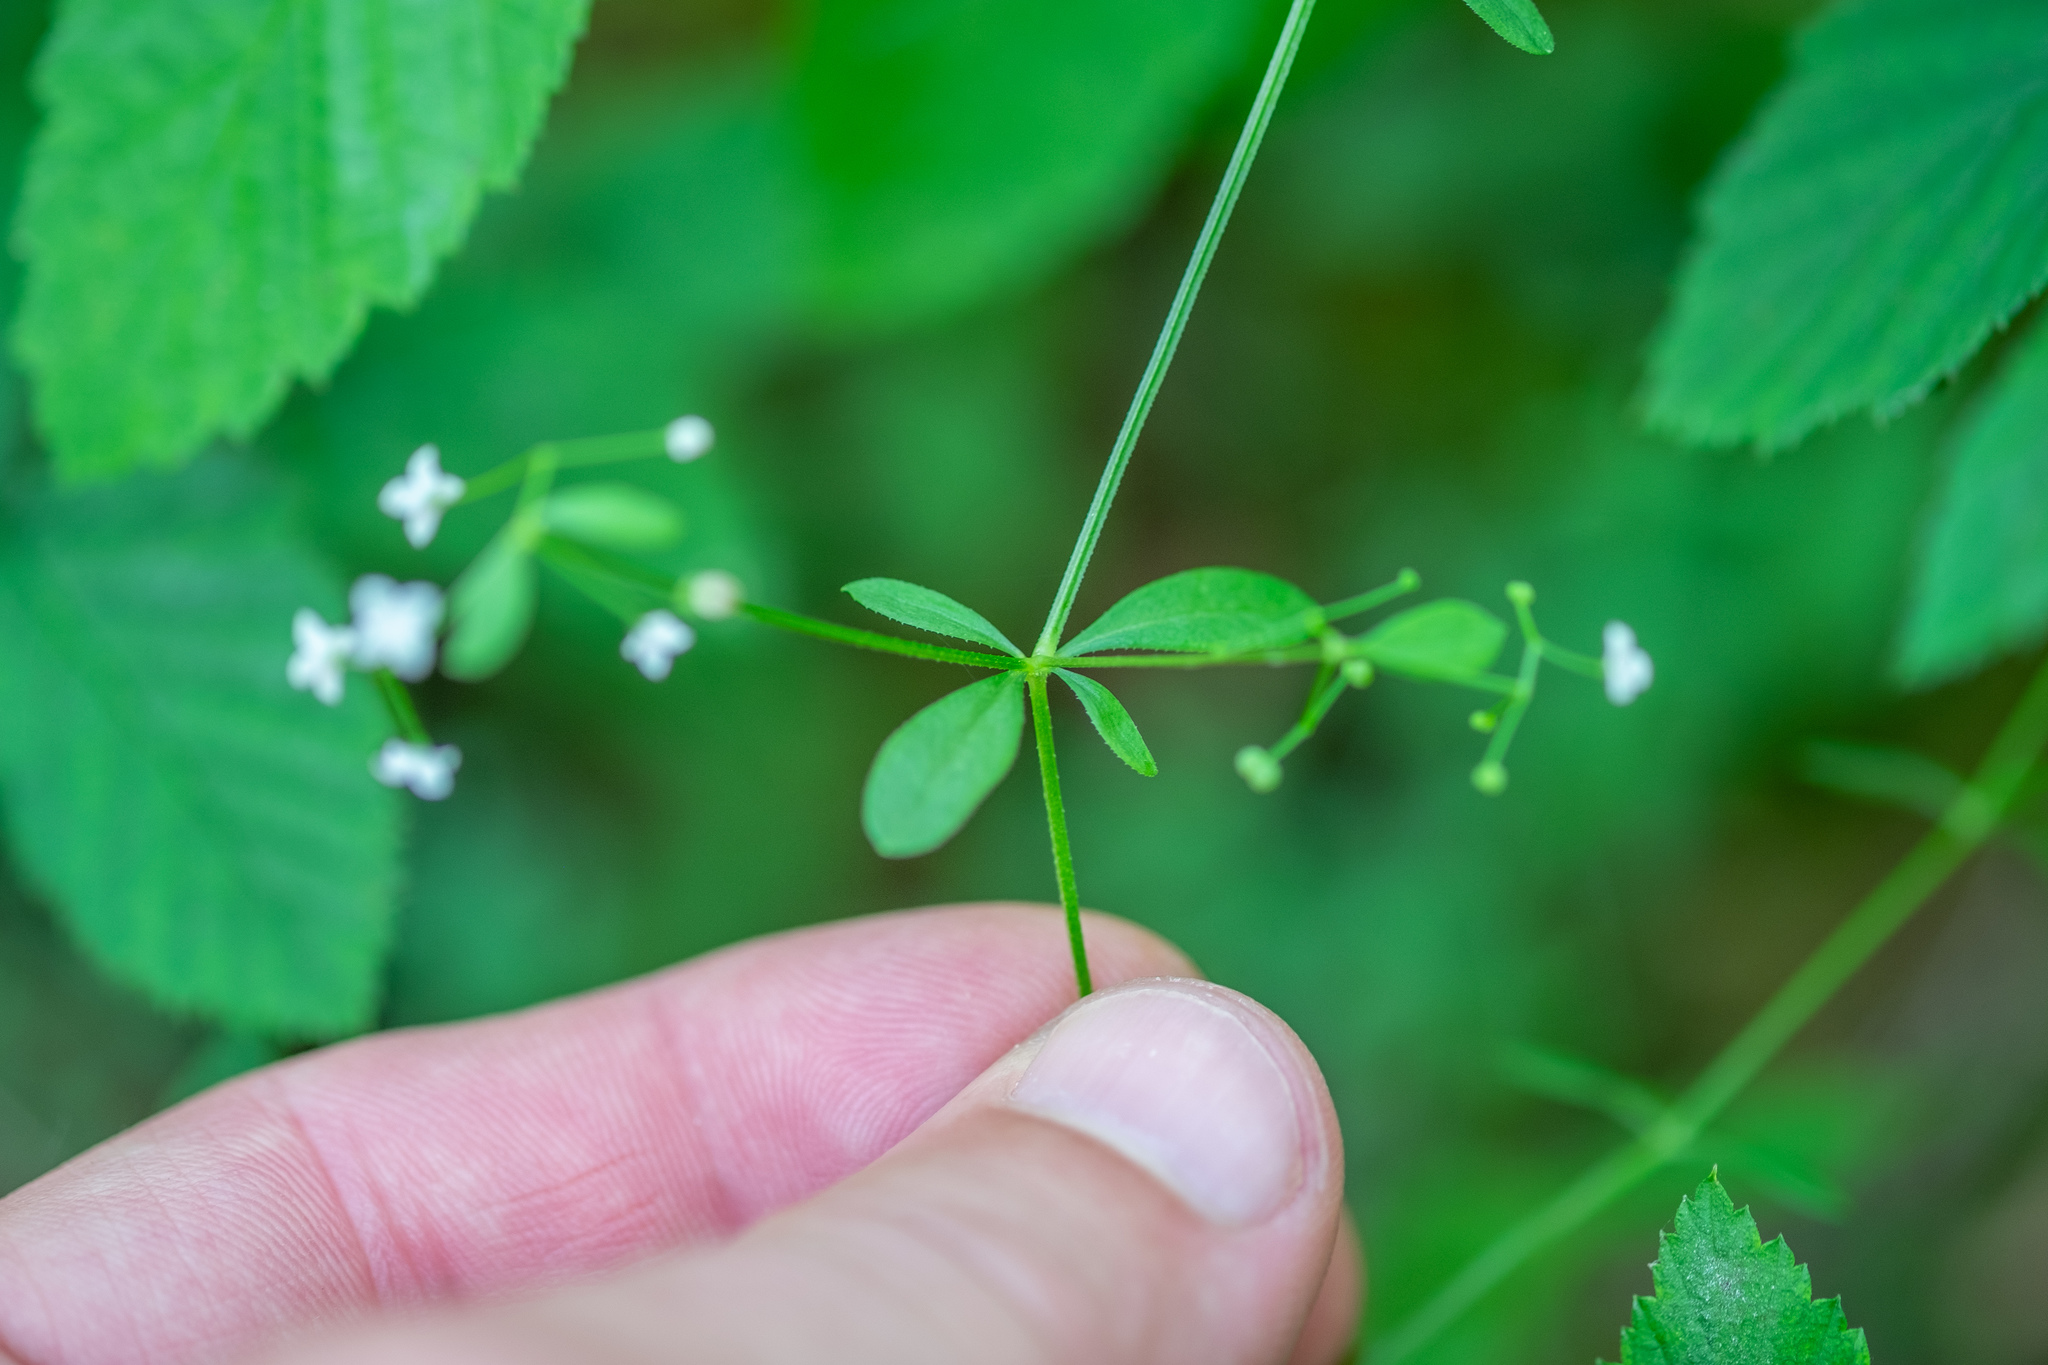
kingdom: Plantae
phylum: Tracheophyta
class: Magnoliopsida
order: Gentianales
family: Rubiaceae
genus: Galium
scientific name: Galium palustre
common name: Common marsh-bedstraw
